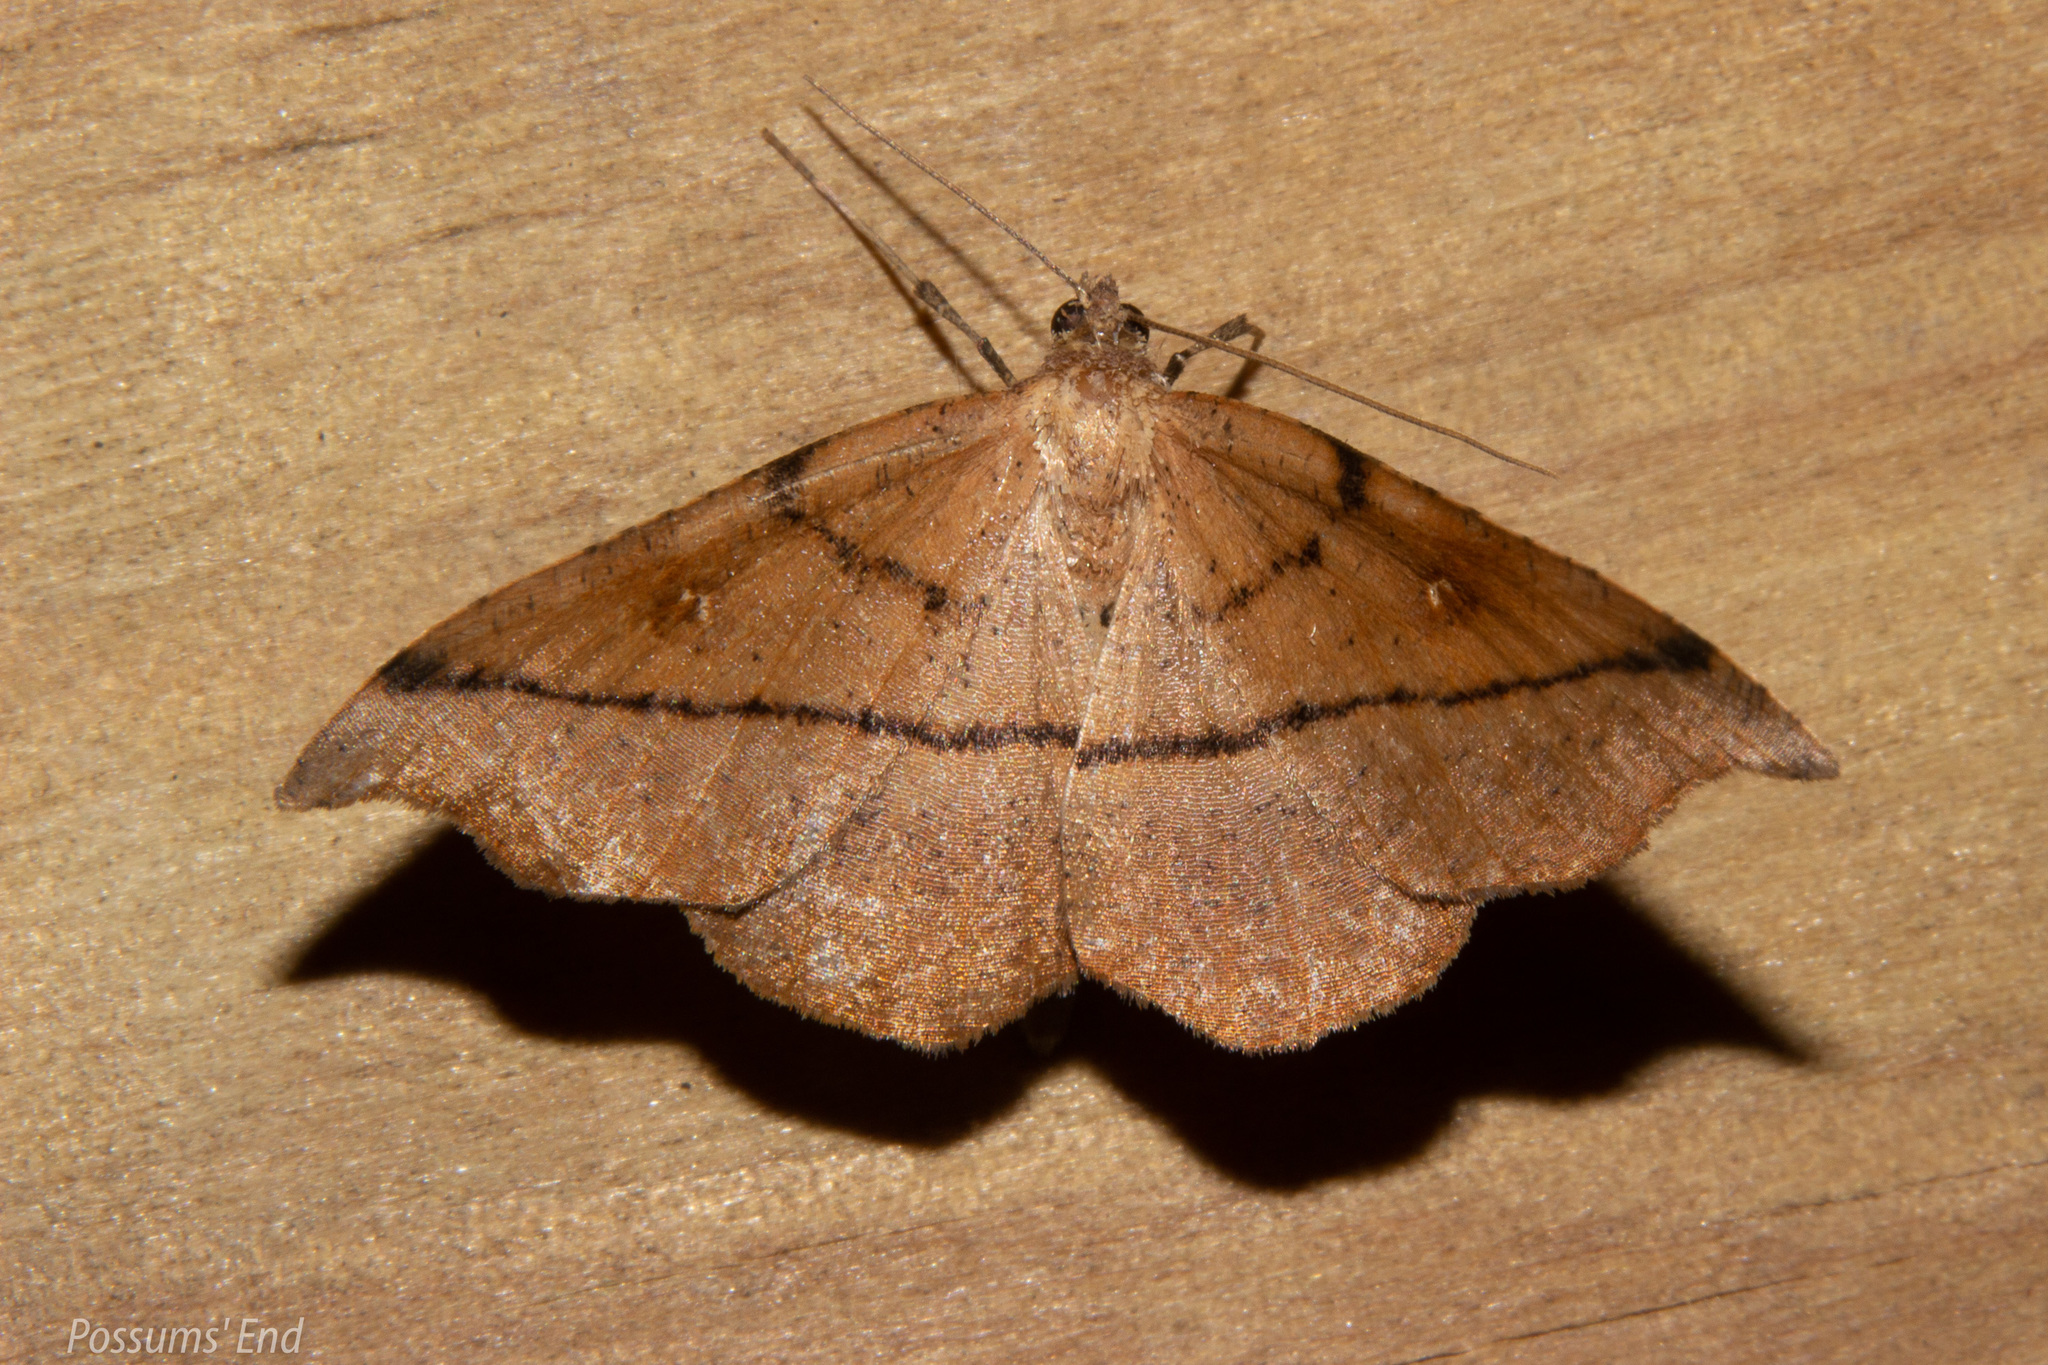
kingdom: Animalia
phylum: Arthropoda
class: Insecta
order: Lepidoptera
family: Geometridae
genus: Sarisa
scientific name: Sarisa muriferata
